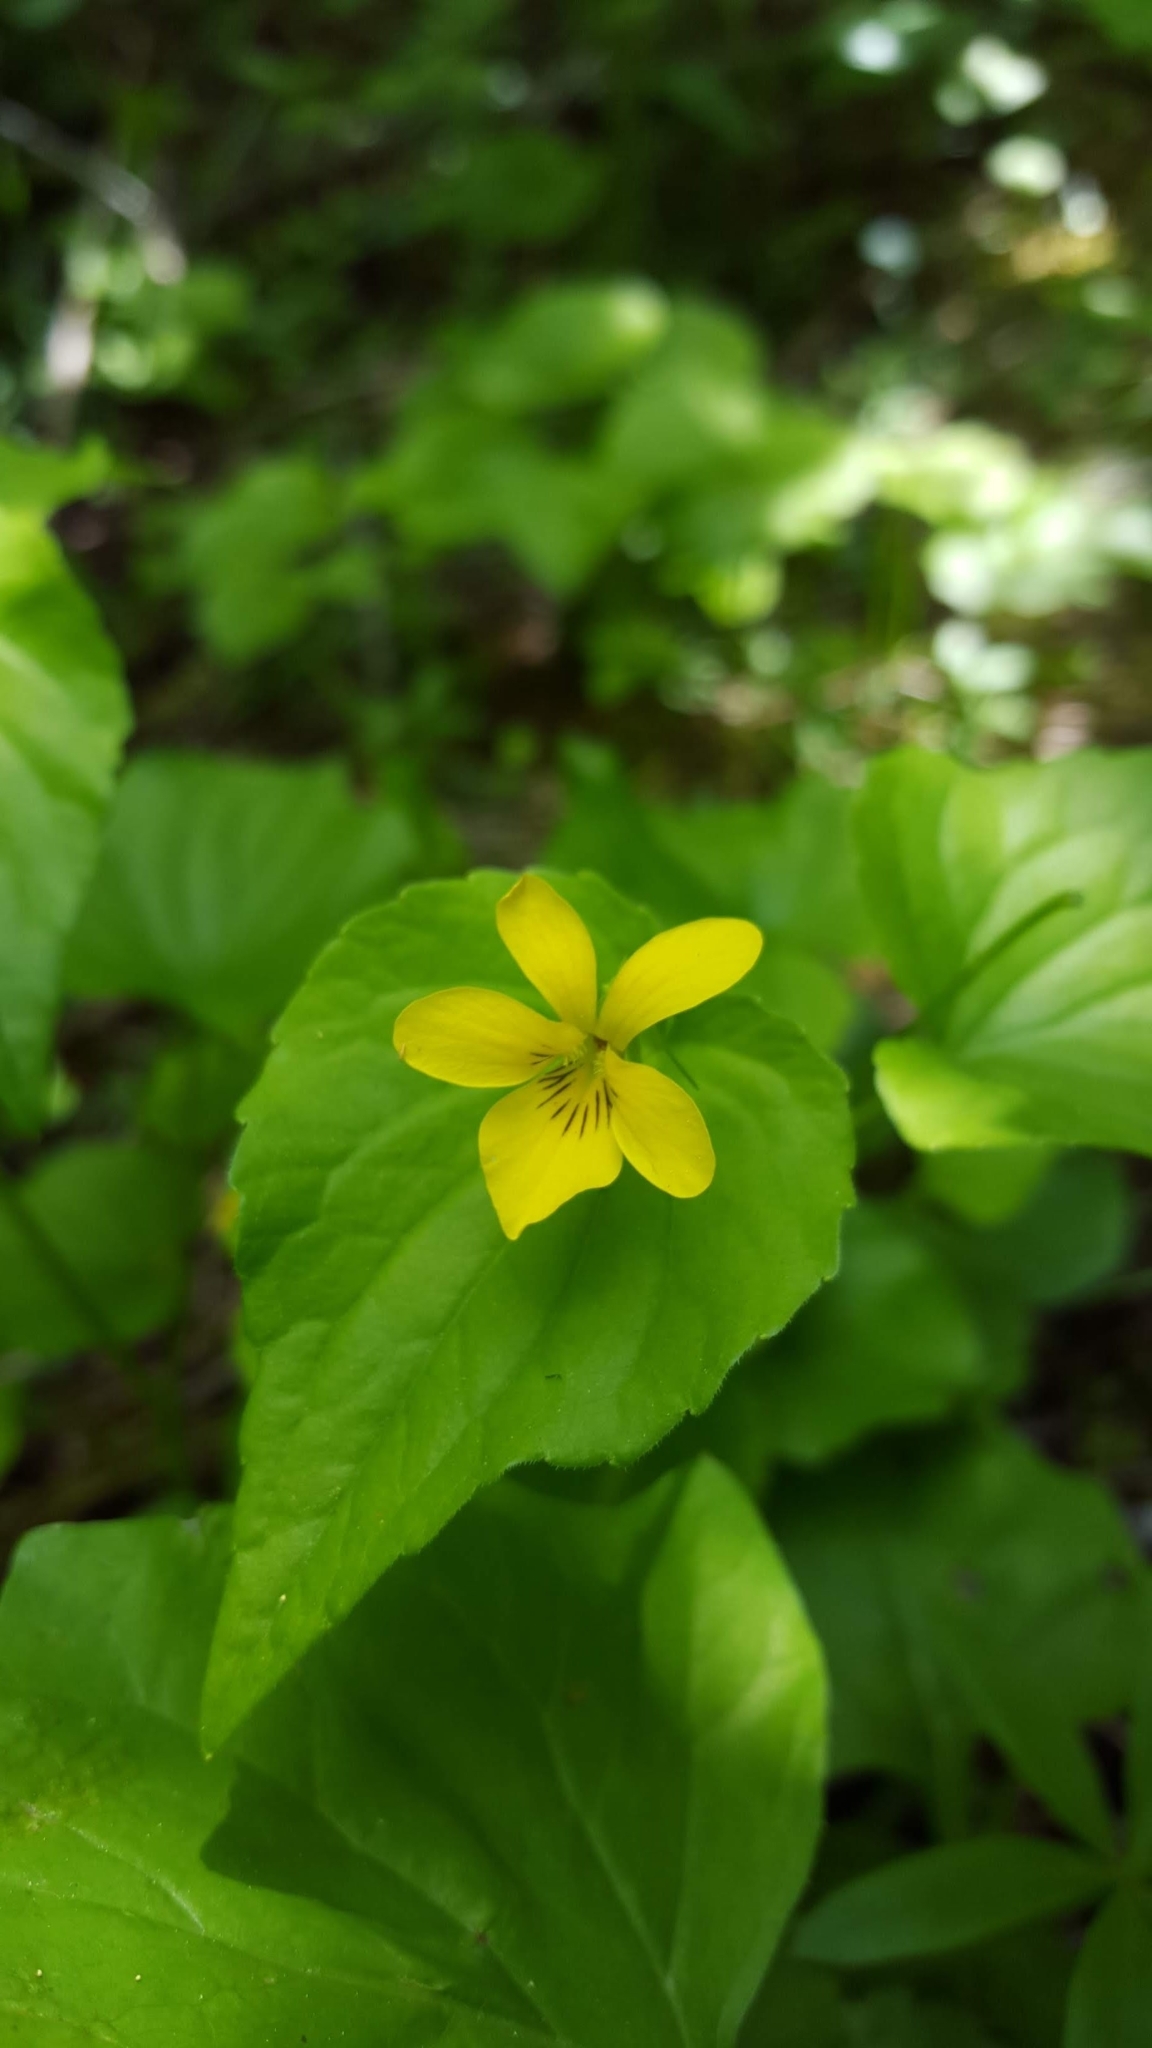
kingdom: Plantae
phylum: Tracheophyta
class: Magnoliopsida
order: Malpighiales
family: Violaceae
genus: Viola
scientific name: Viola glabella
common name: Stream violet
